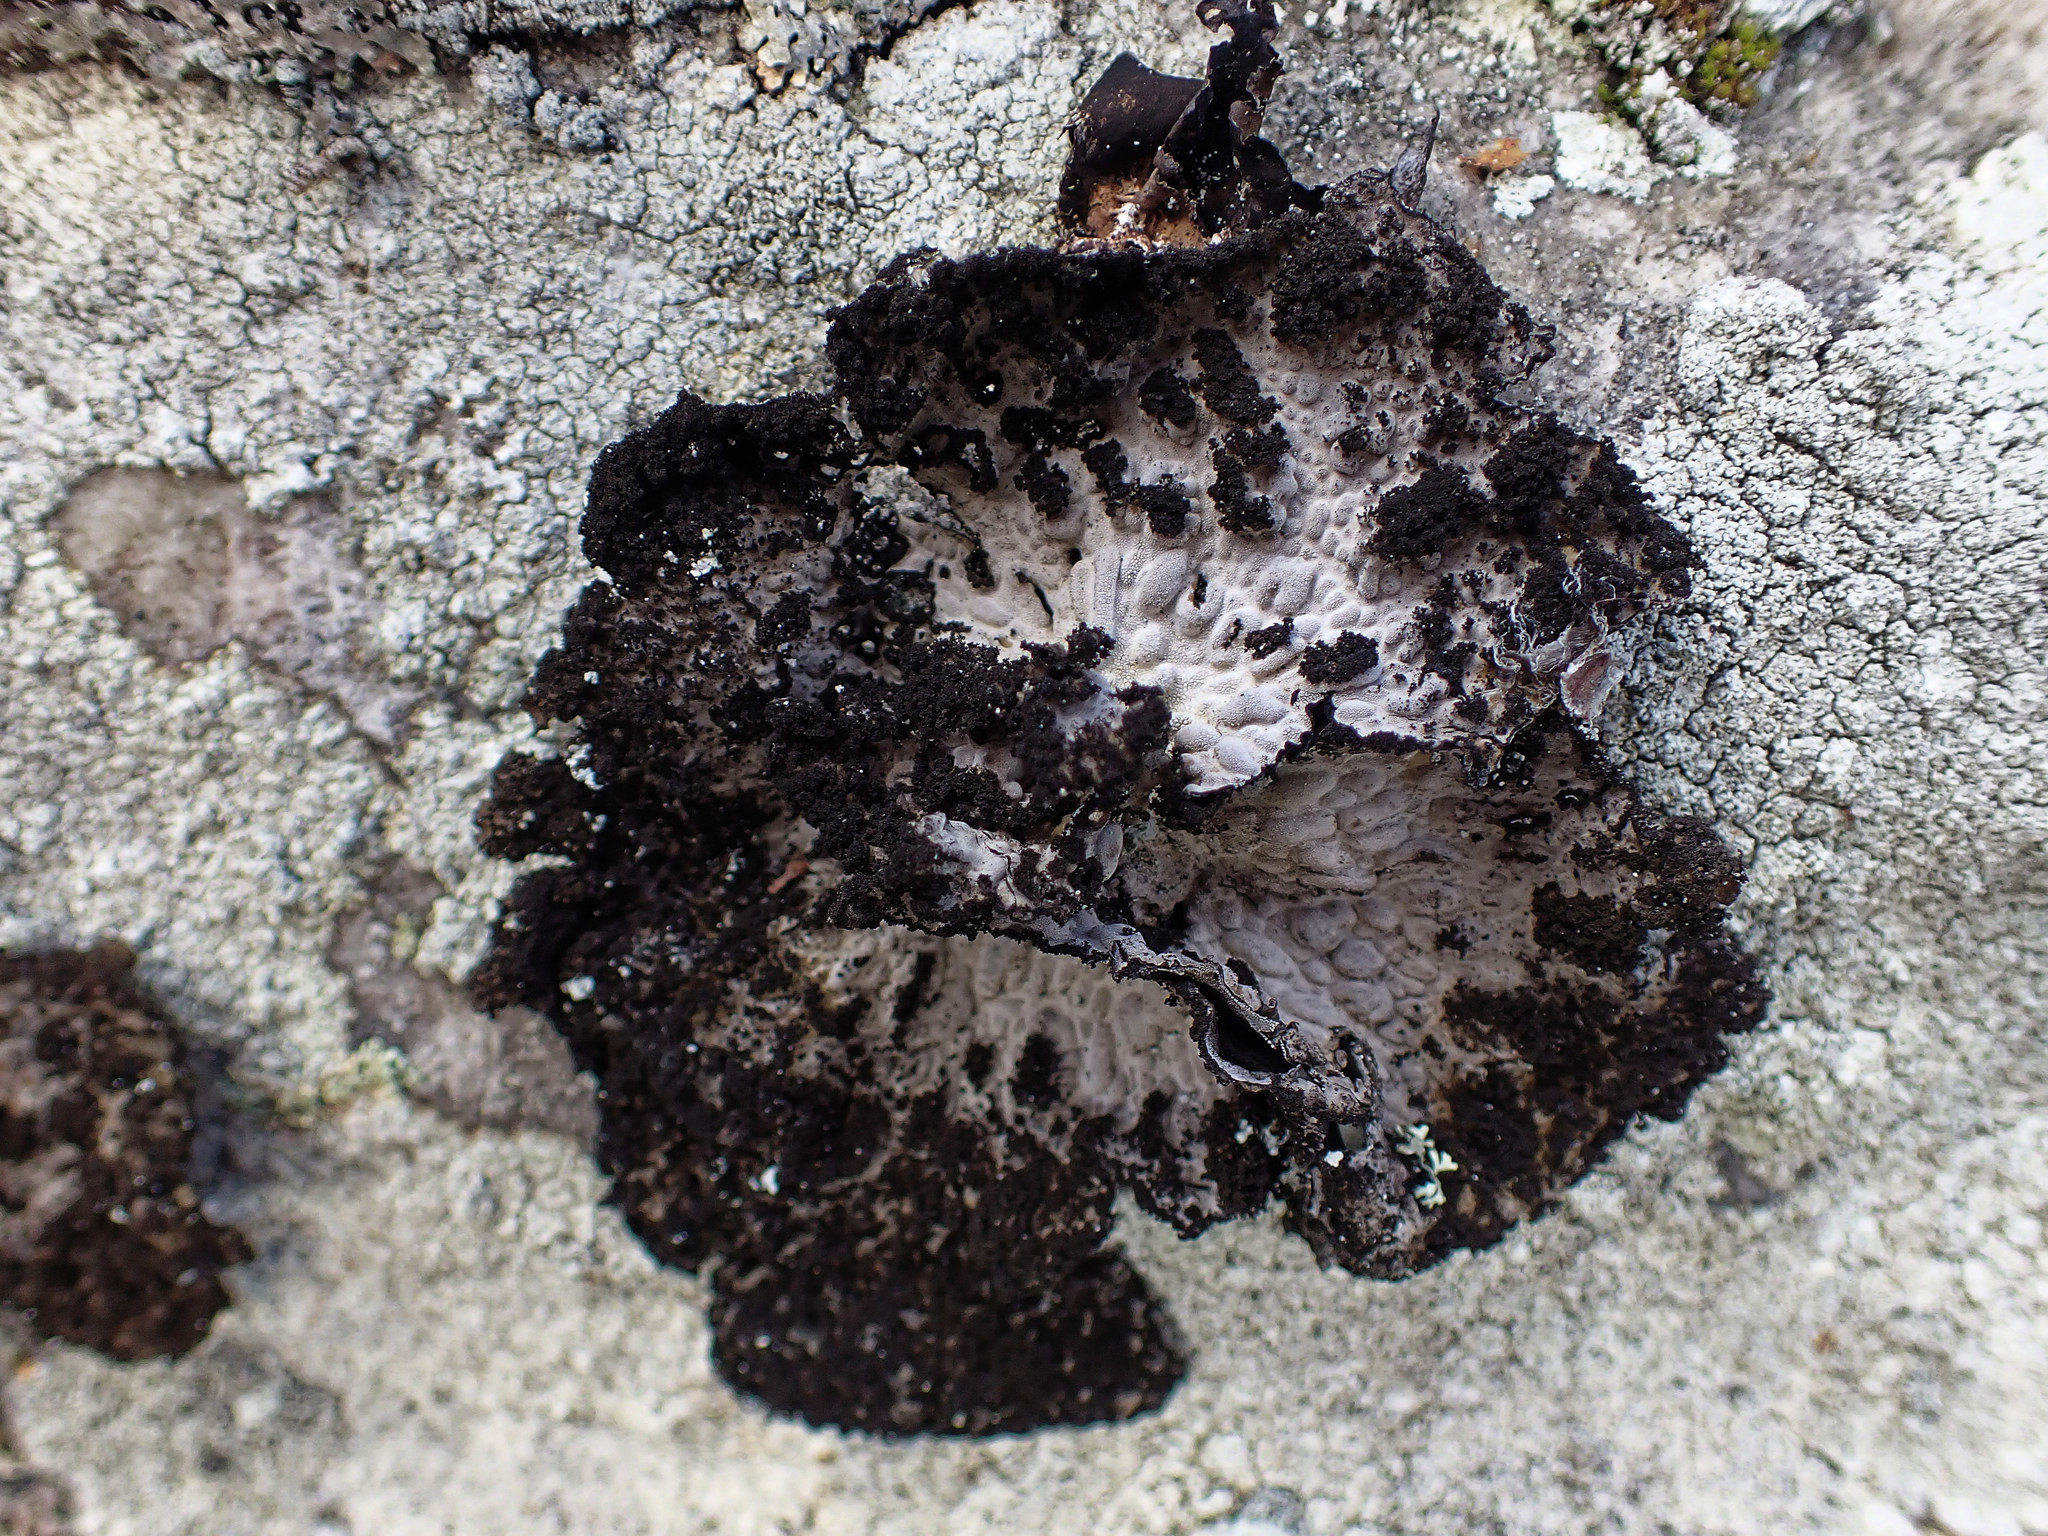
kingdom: Fungi
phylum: Ascomycota
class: Lecanoromycetes
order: Umbilicariales
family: Umbilicariaceae
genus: Lasallia
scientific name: Lasallia pustulata
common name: Blistered toadskin lichen
